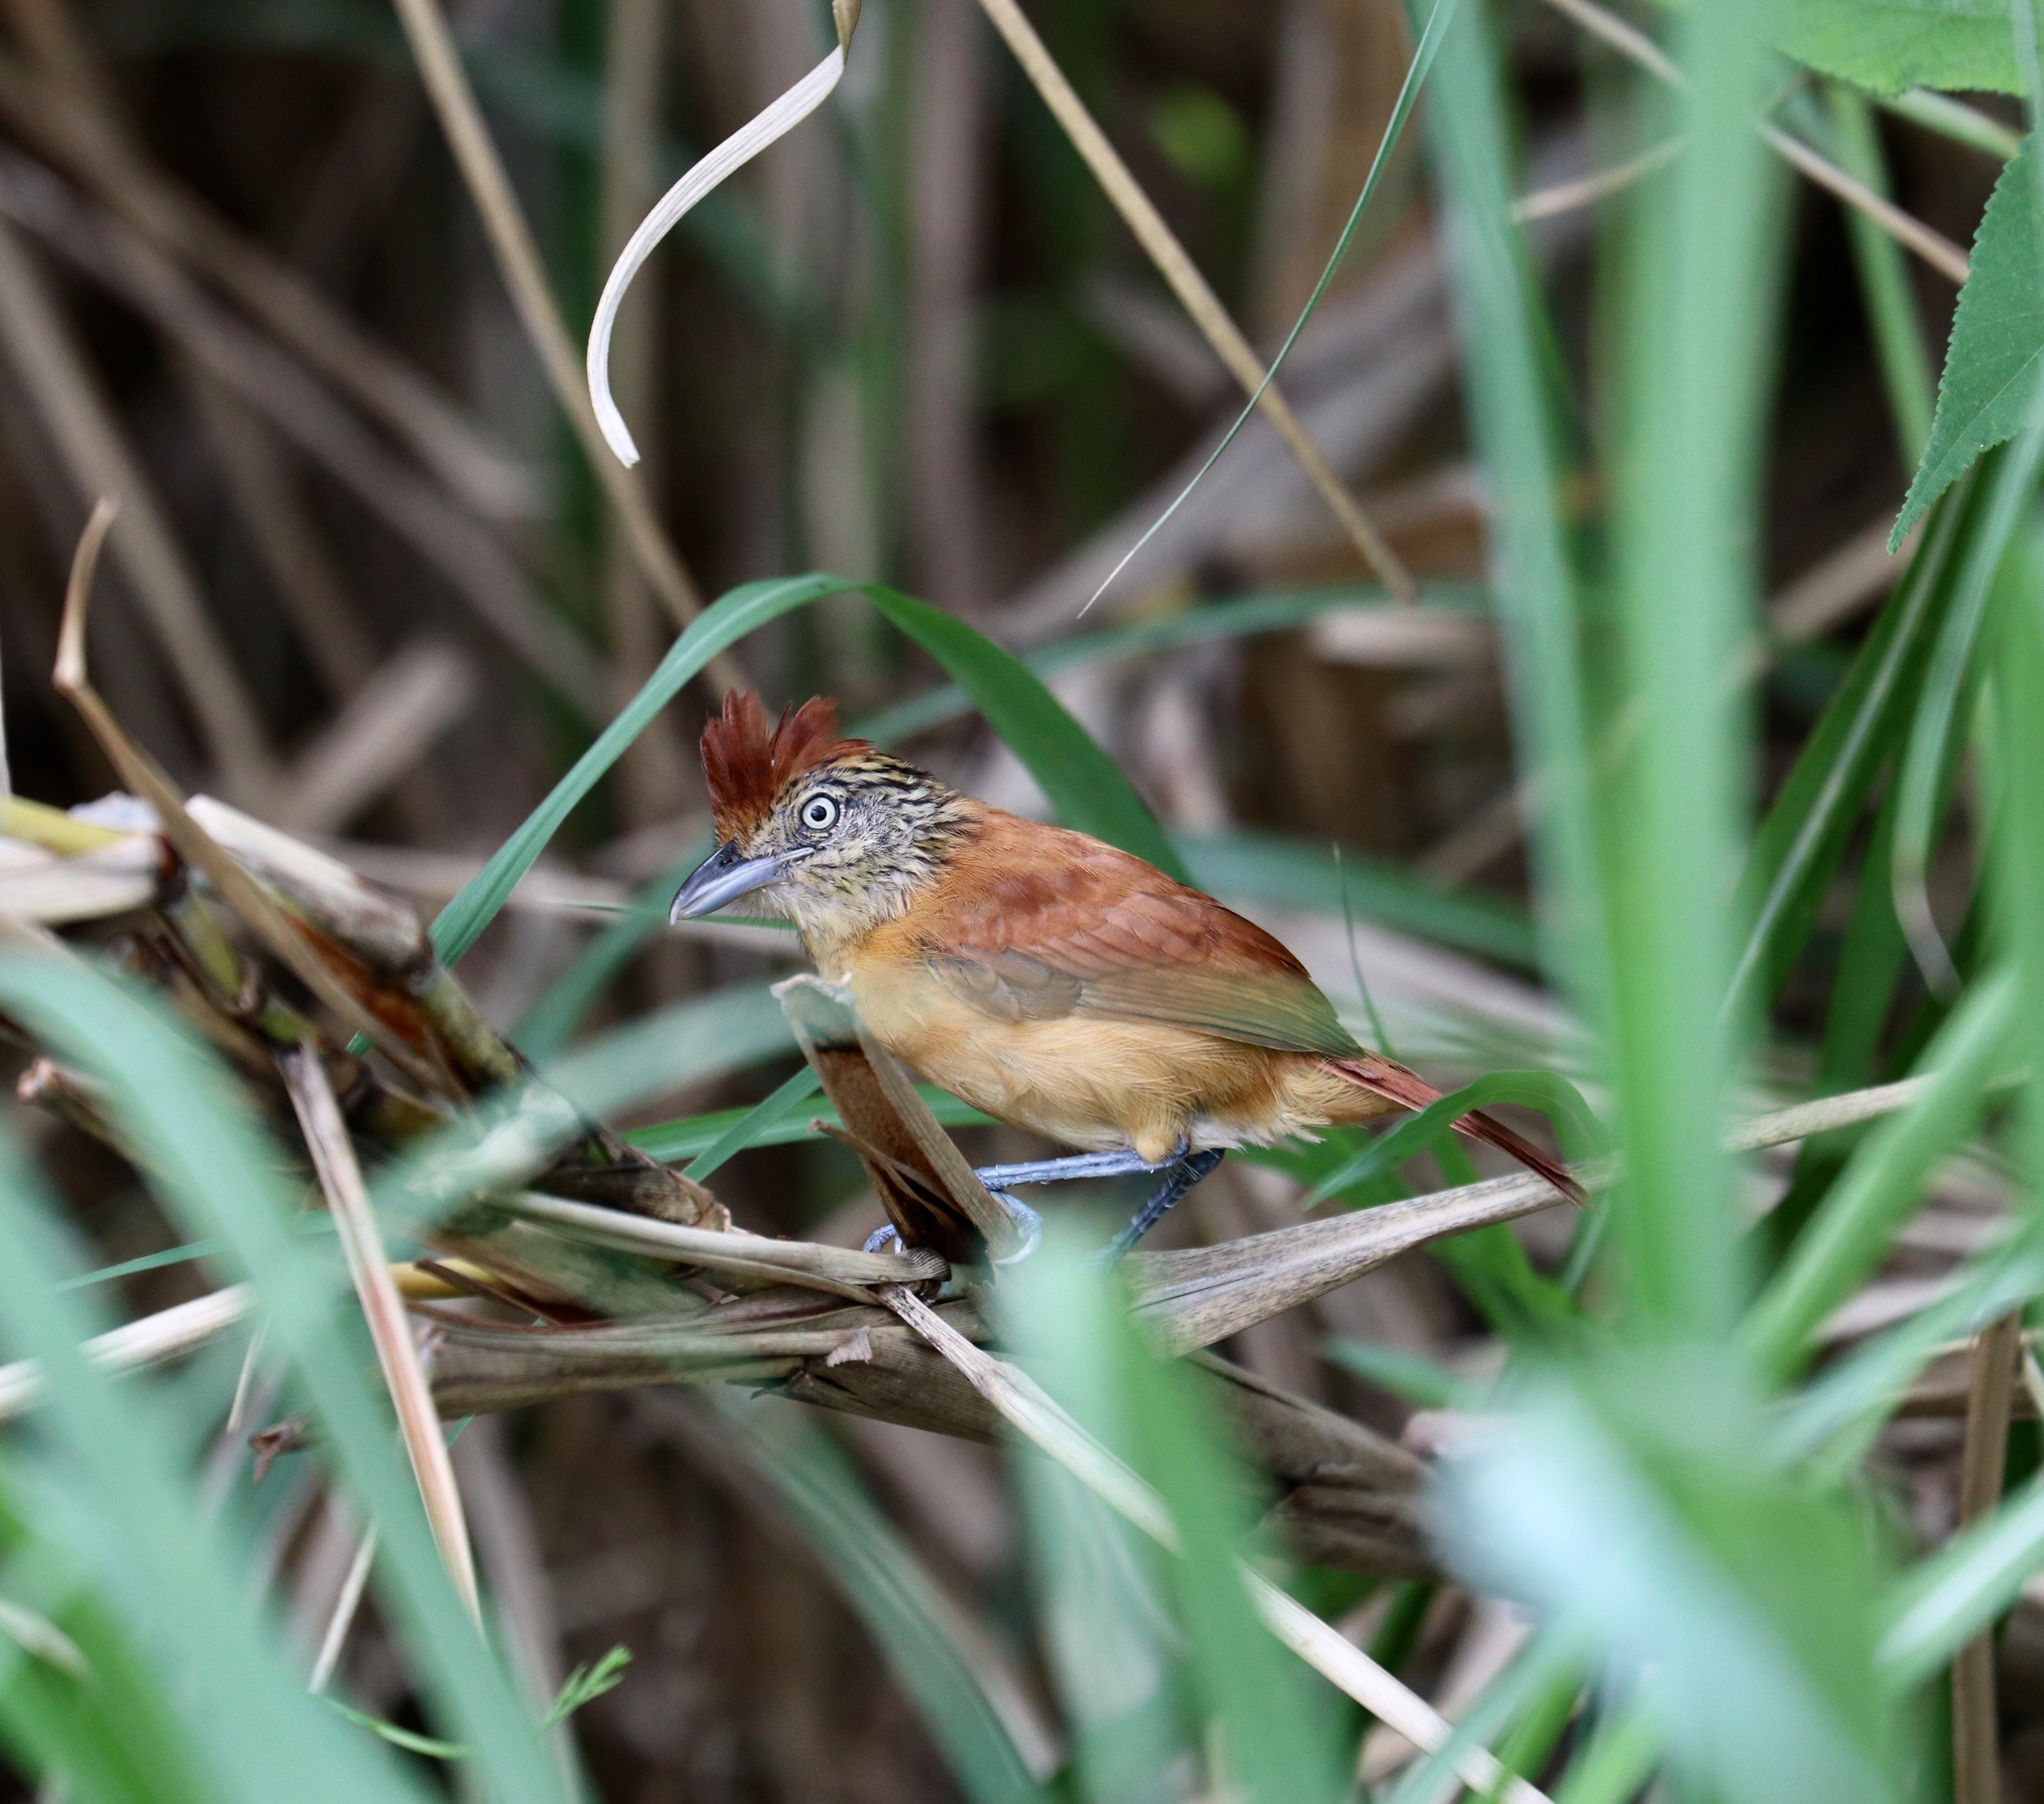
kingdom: Animalia
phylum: Chordata
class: Aves
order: Passeriformes
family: Thamnophilidae
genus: Thamnophilus
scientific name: Thamnophilus doliatus
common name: Barred antshrike
